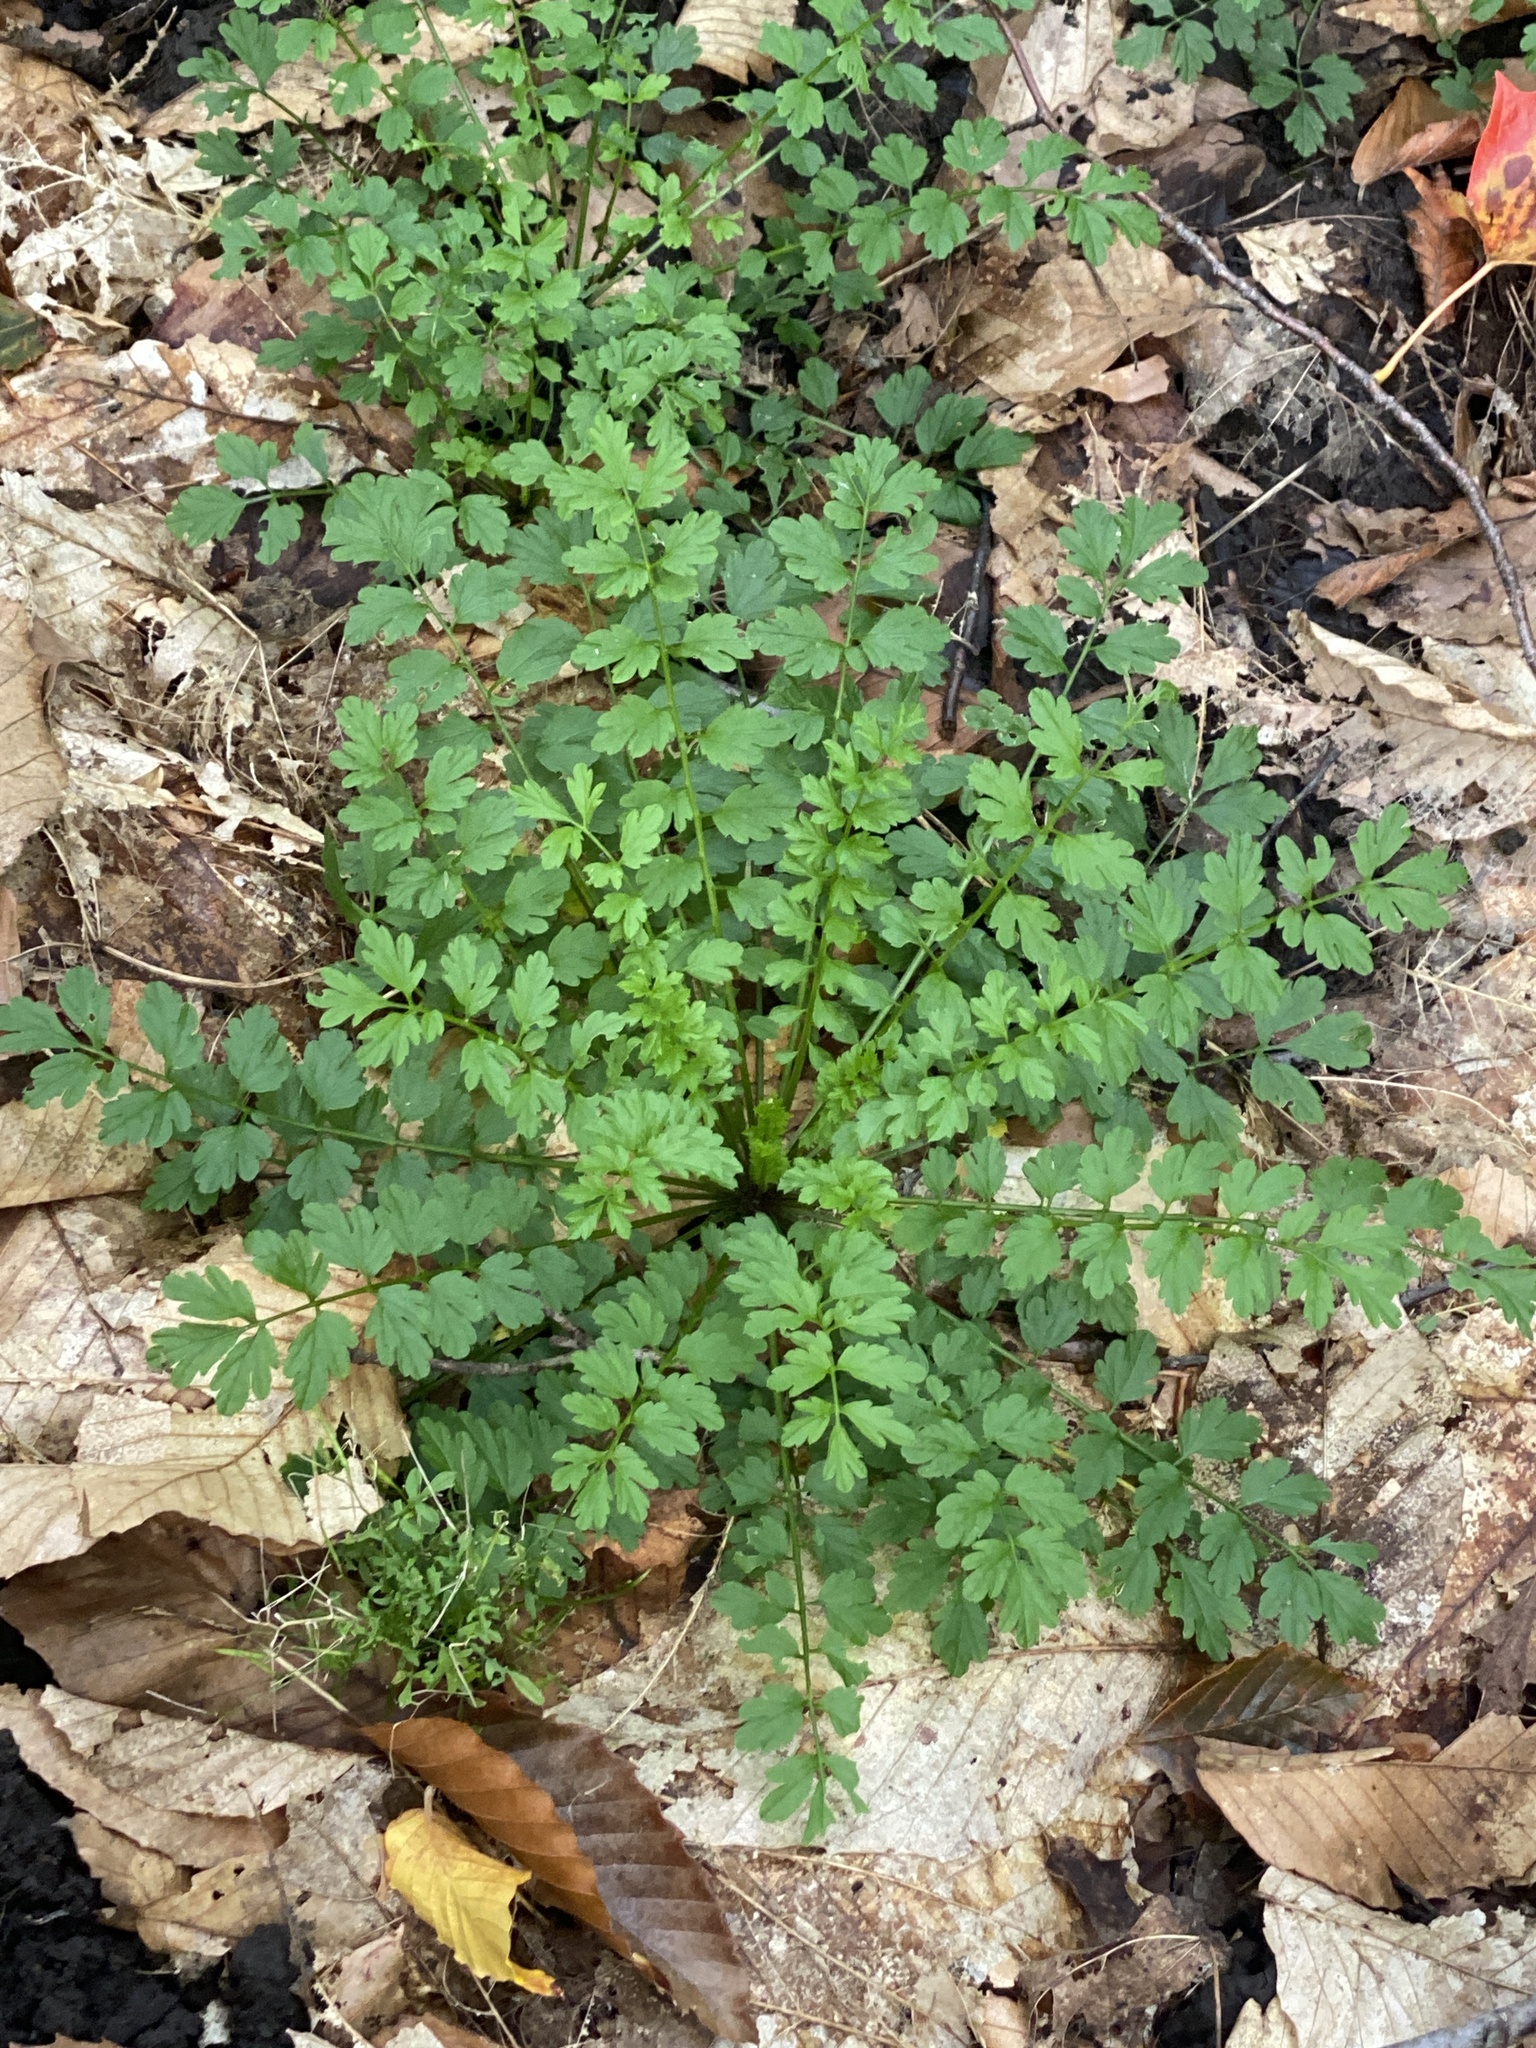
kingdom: Plantae
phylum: Tracheophyta
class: Magnoliopsida
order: Brassicales
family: Brassicaceae
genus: Cardamine
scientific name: Cardamine impatiens
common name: Narrow-leaved bitter-cress
